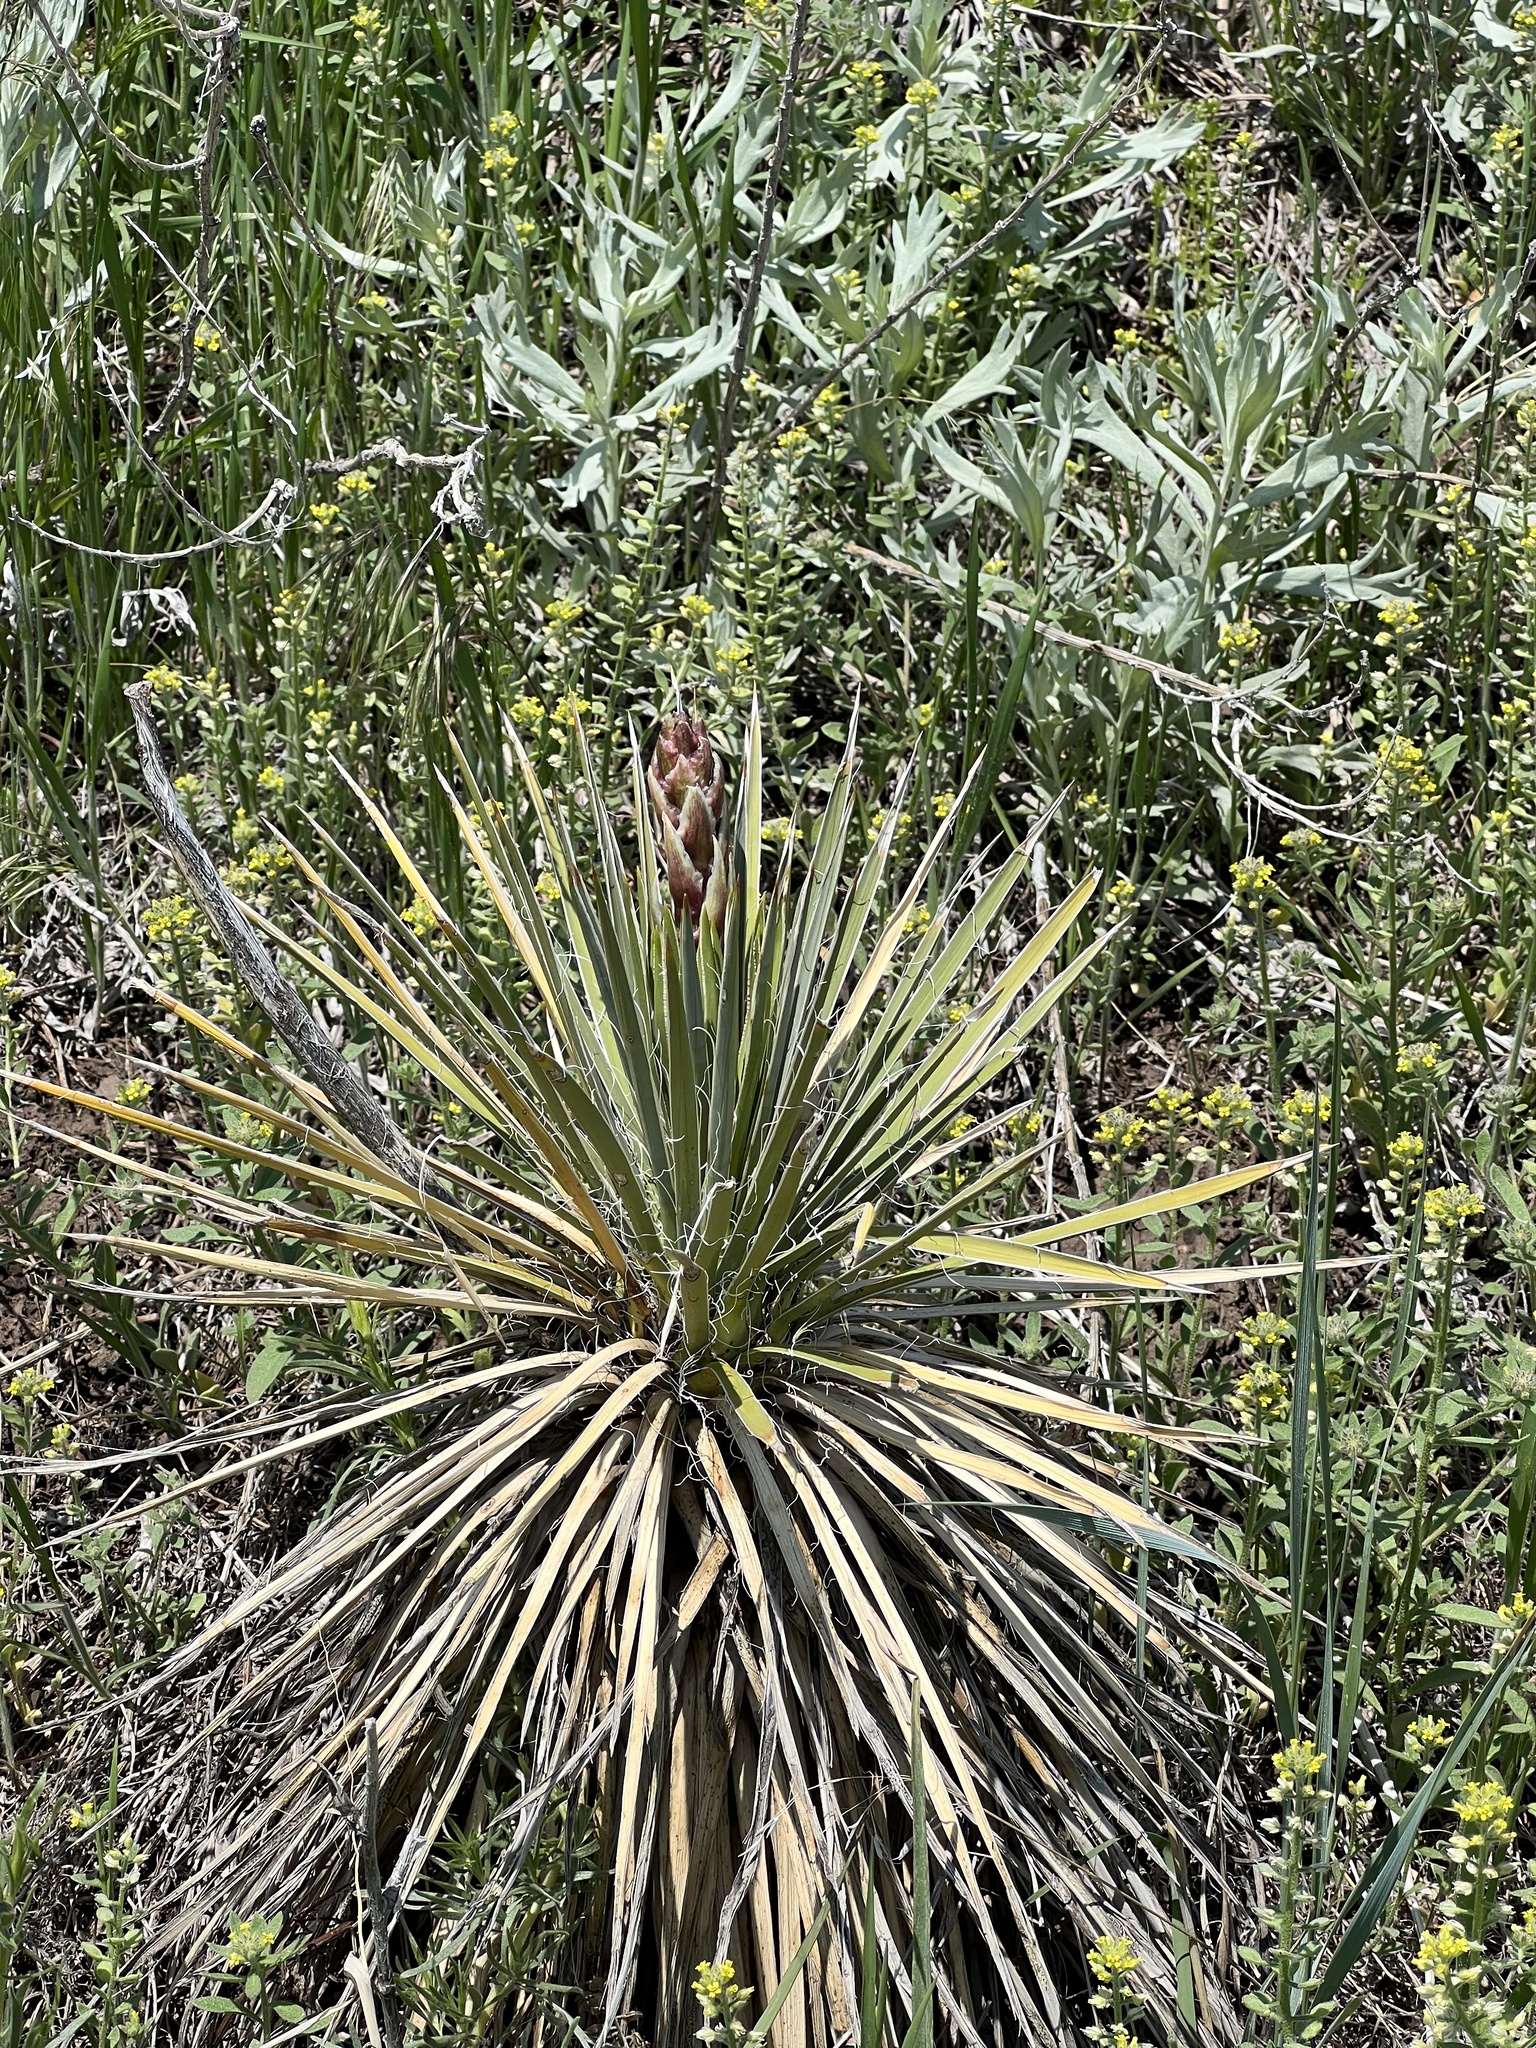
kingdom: Plantae
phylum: Tracheophyta
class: Liliopsida
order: Asparagales
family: Asparagaceae
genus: Yucca
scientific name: Yucca glauca
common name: Great plains yucca
